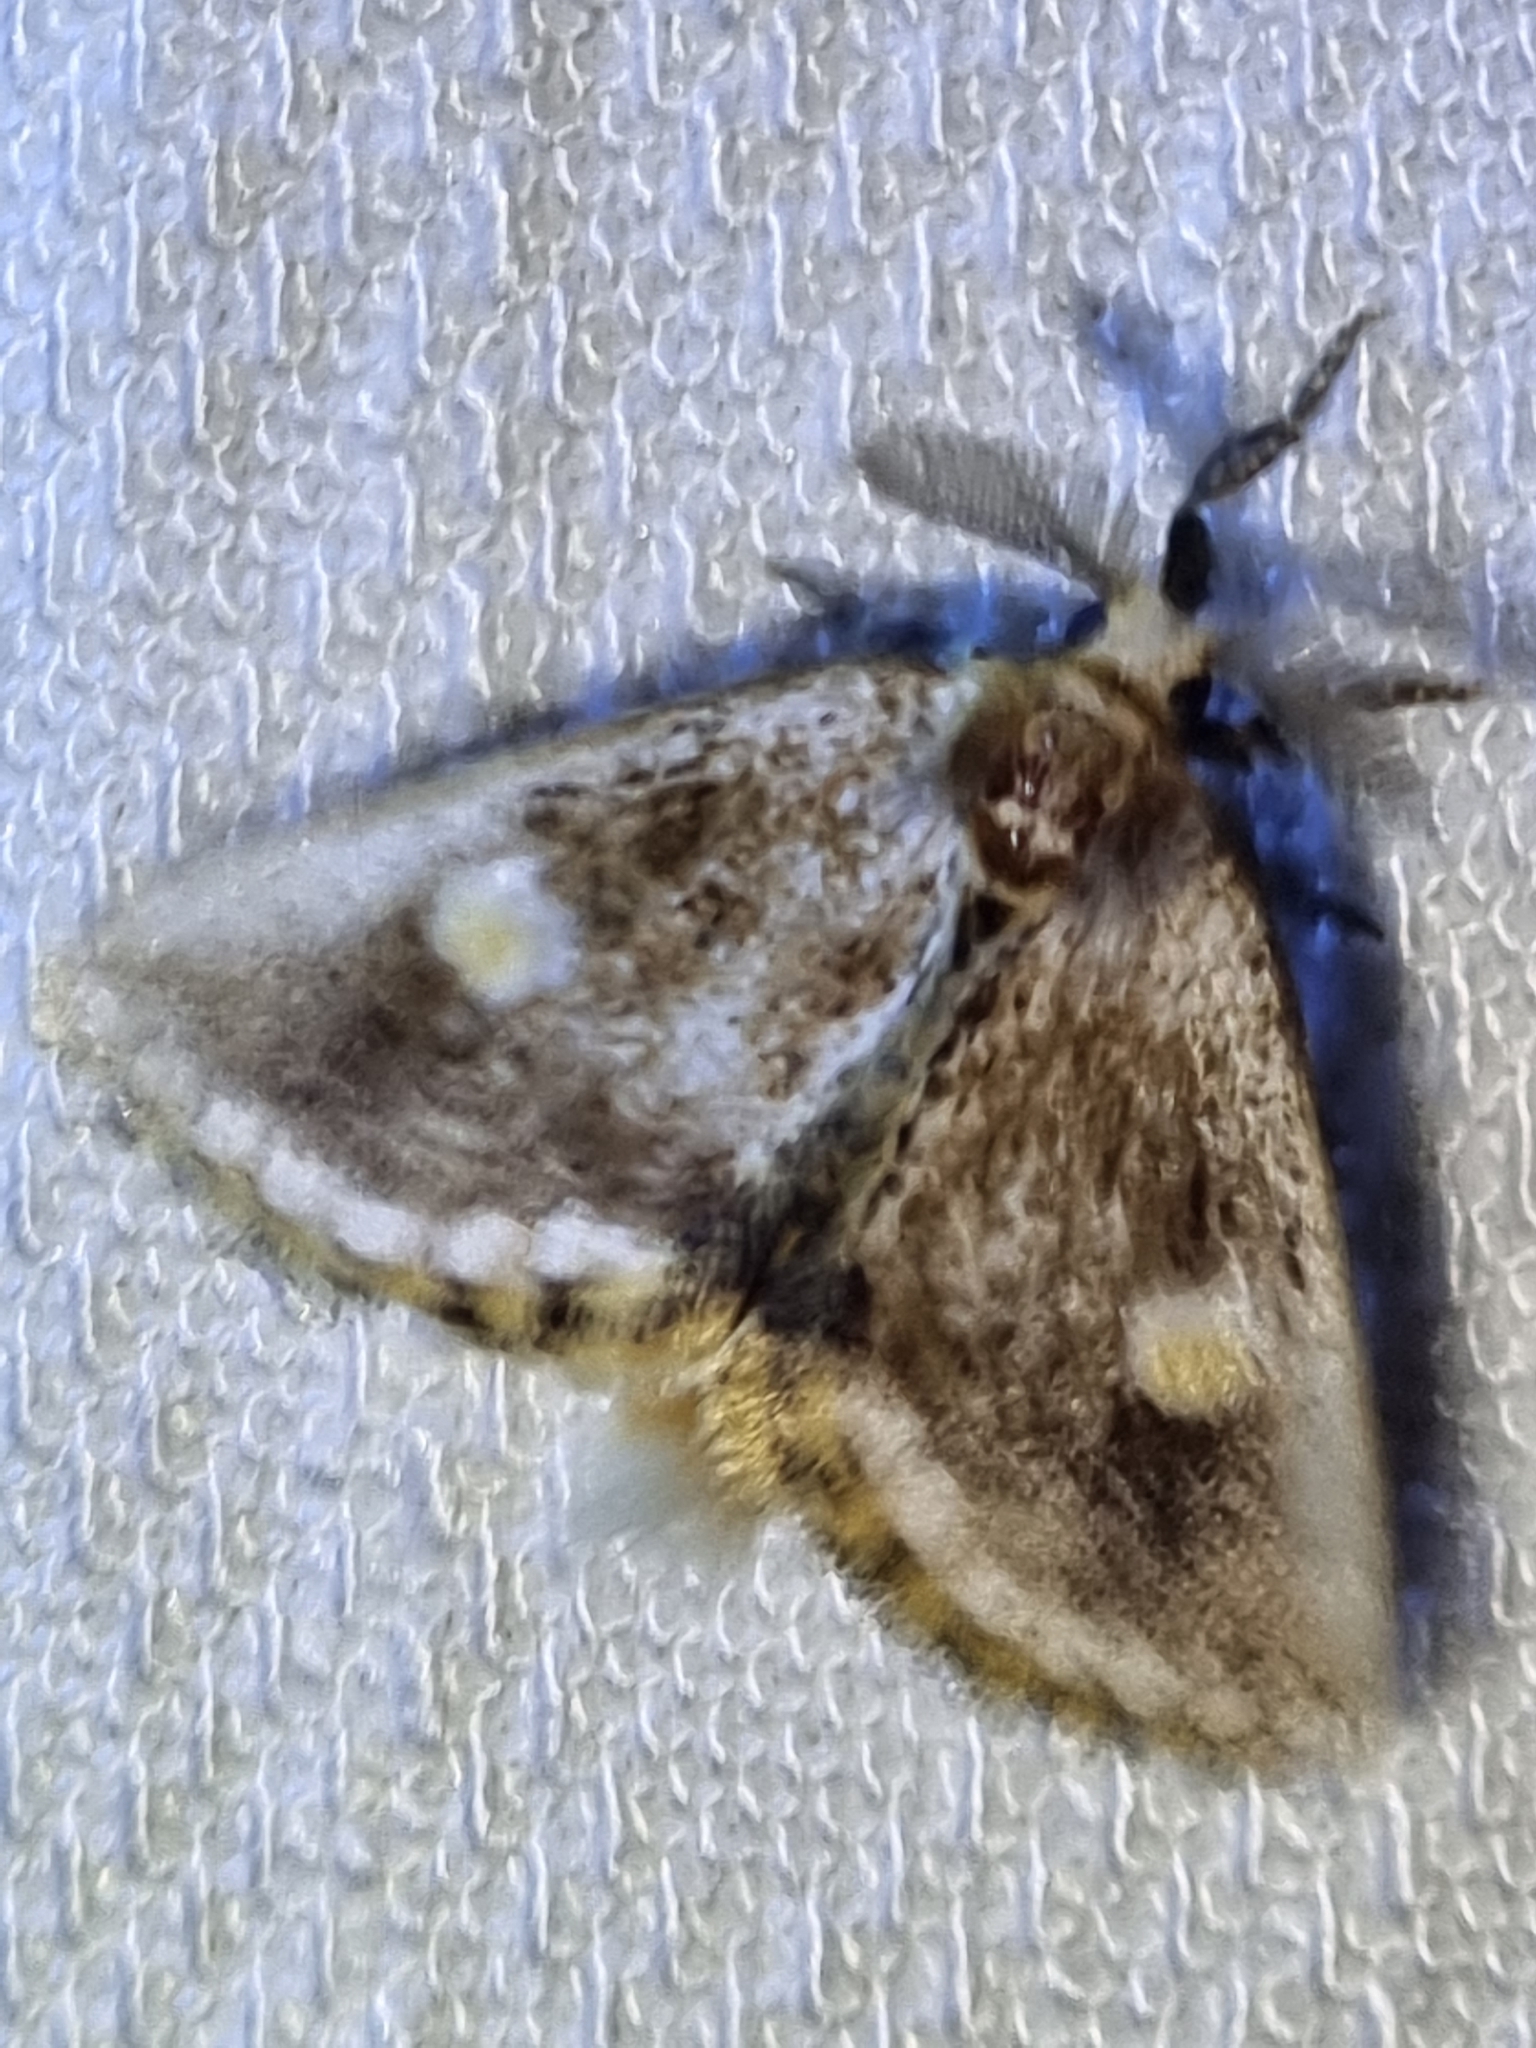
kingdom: Animalia
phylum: Arthropoda
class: Insecta
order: Lepidoptera
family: Notodontidae
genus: Epicoma
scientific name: Epicoma protrahens
